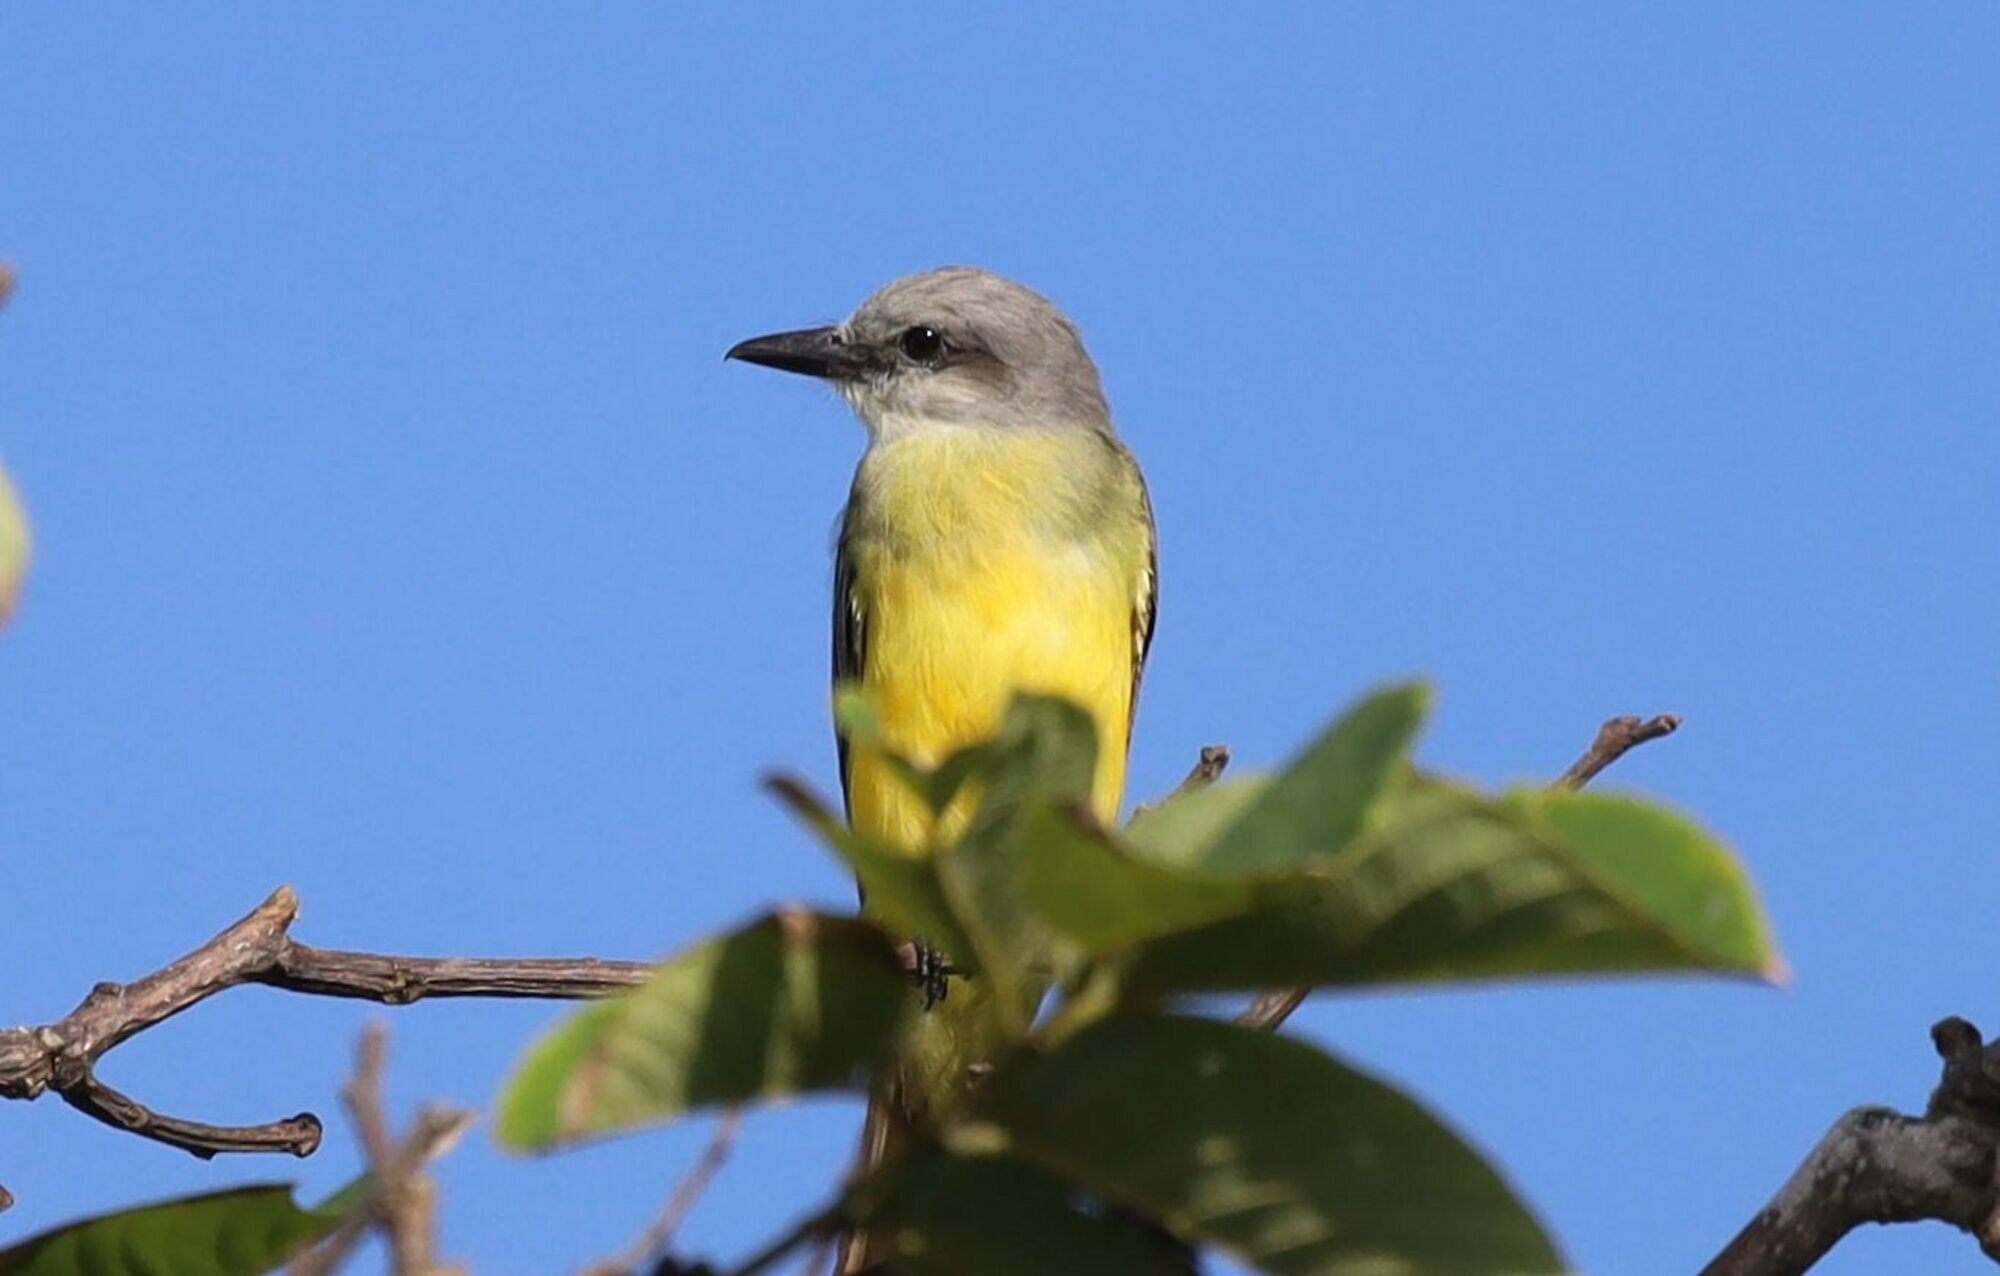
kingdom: Animalia
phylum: Chordata
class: Aves
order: Passeriformes
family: Tyrannidae
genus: Tyrannus
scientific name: Tyrannus melancholicus
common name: Tropical kingbird
